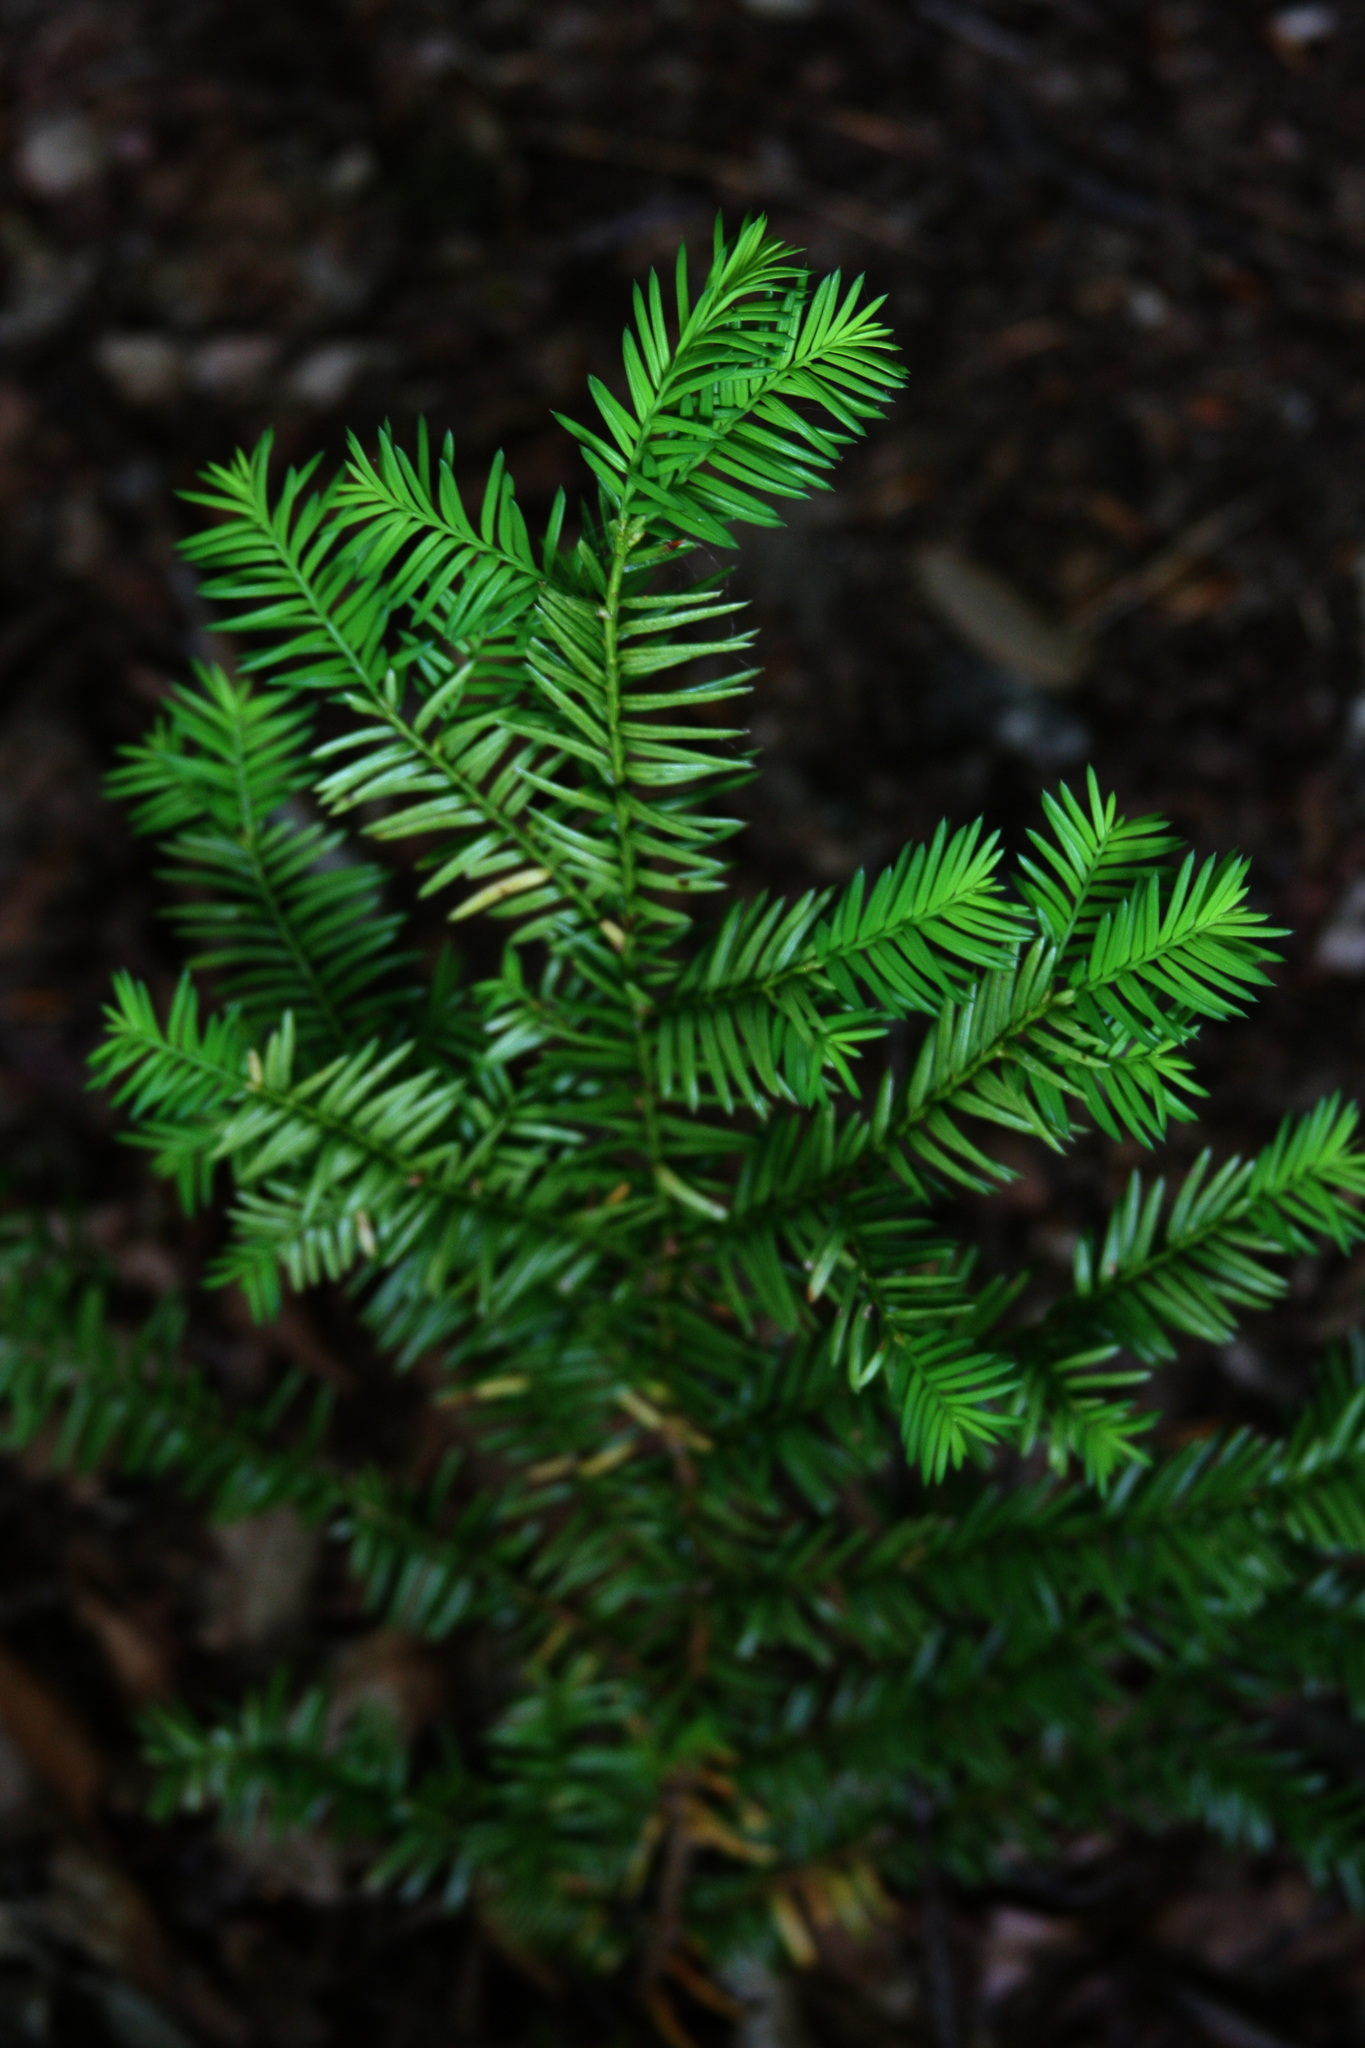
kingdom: Plantae
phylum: Tracheophyta
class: Pinopsida
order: Pinales
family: Taxaceae
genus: Taxus
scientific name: Taxus canadensis
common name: American yew
